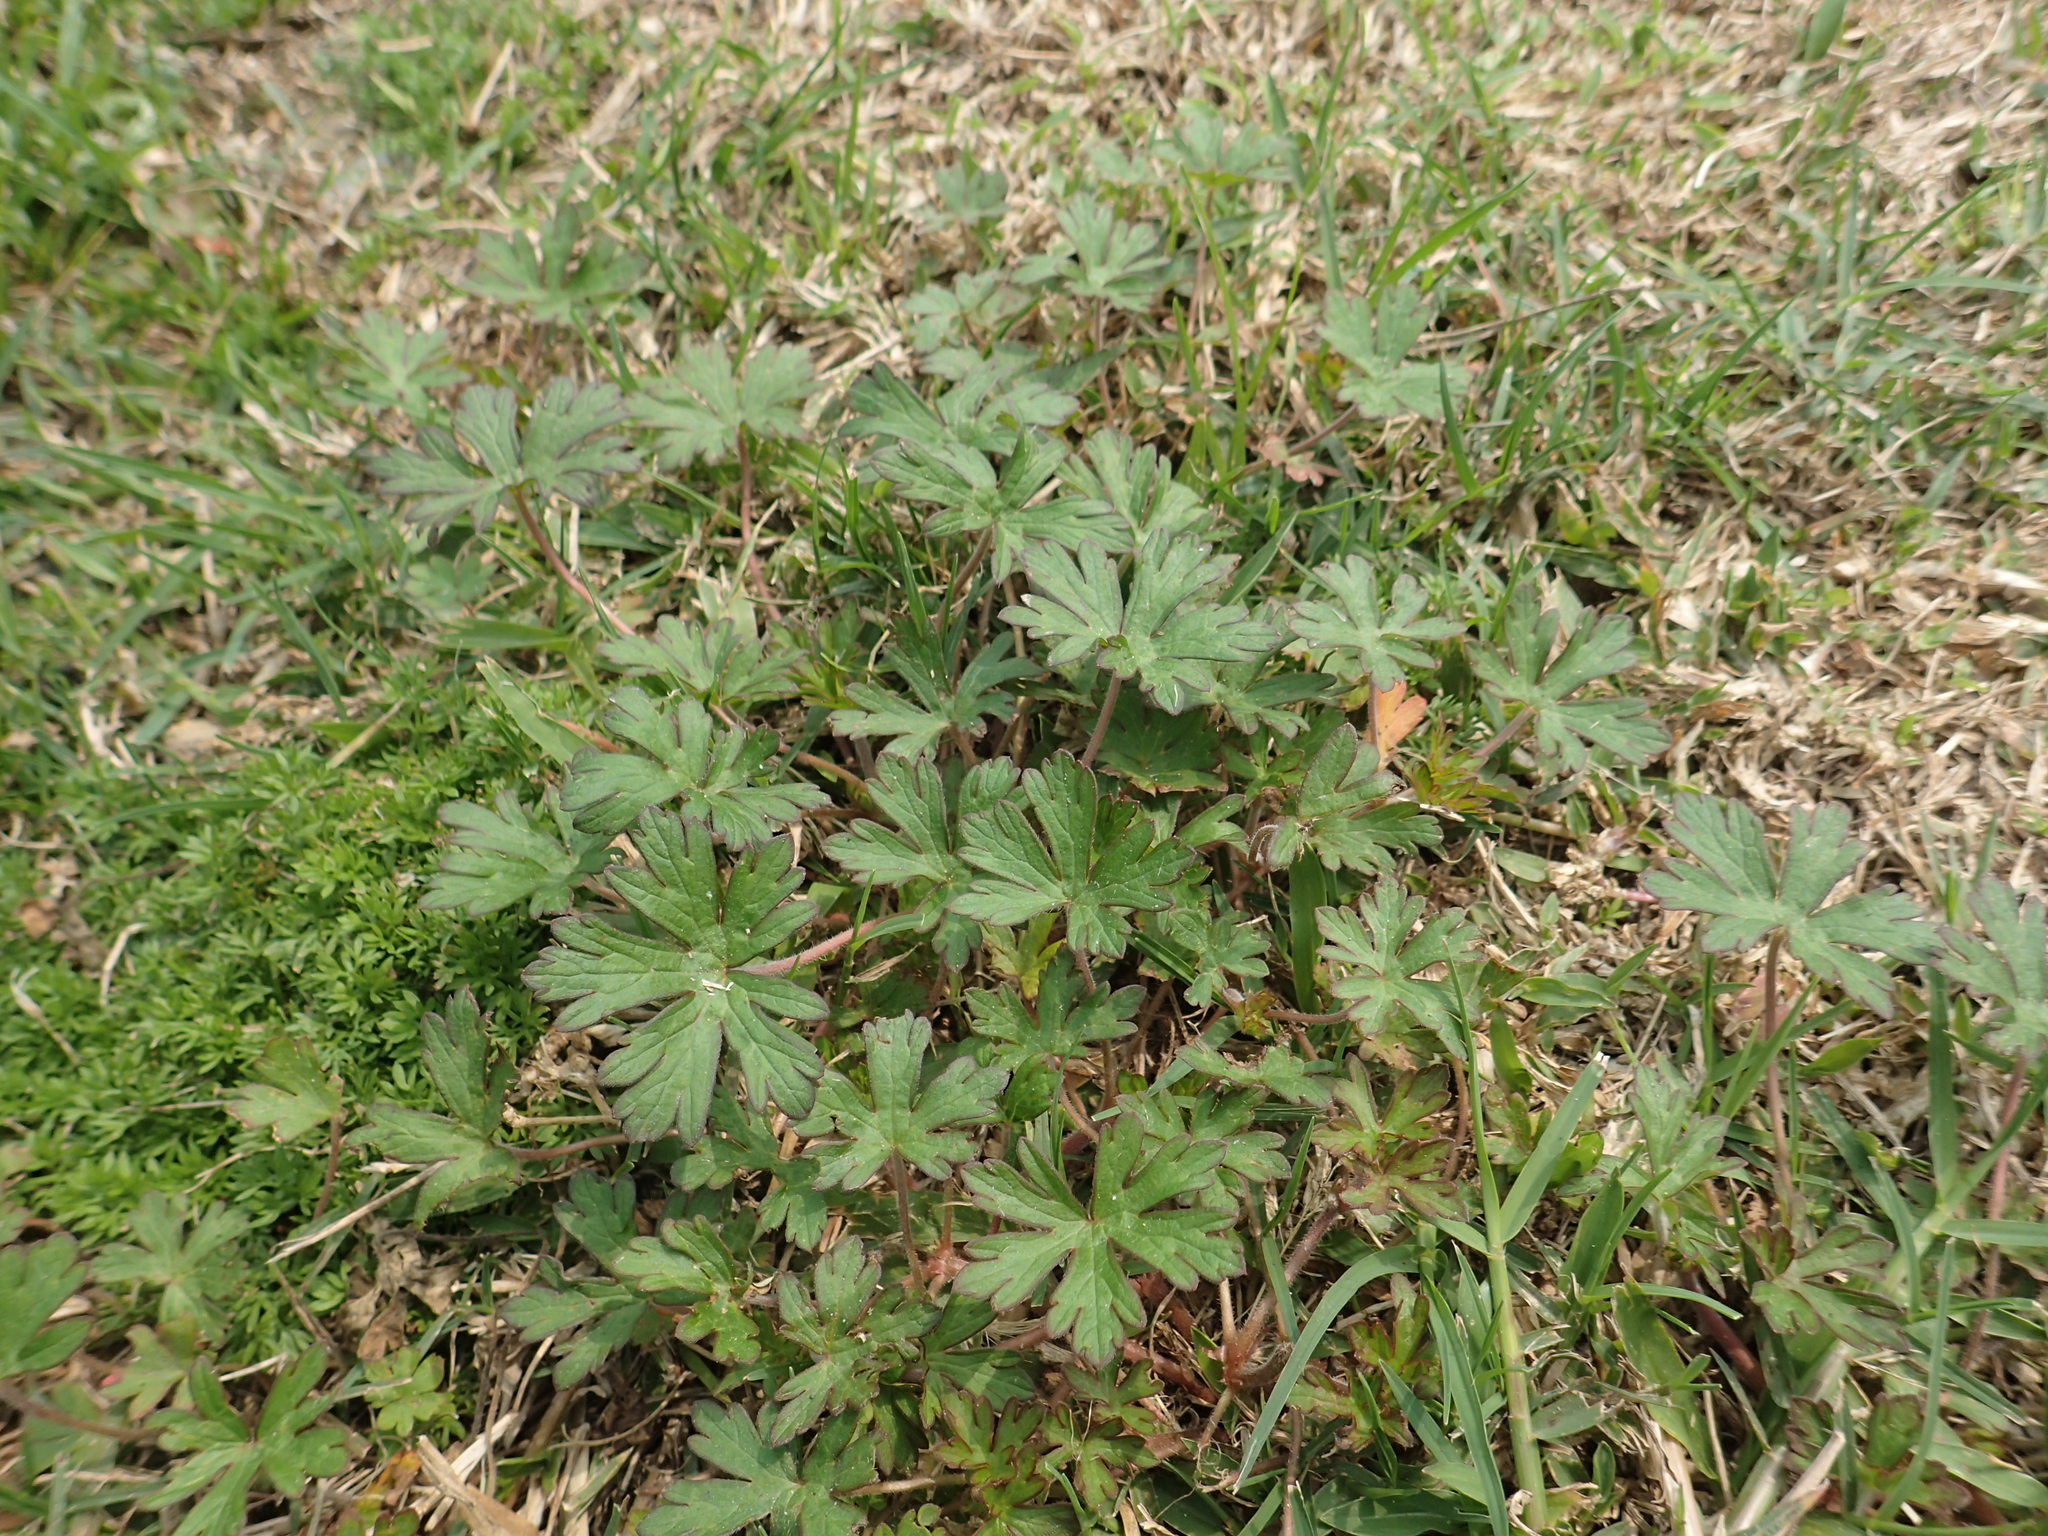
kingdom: Plantae
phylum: Tracheophyta
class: Magnoliopsida
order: Geraniales
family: Geraniaceae
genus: Geranium
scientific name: Geranium carolinianum
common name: Carolina crane's-bill
